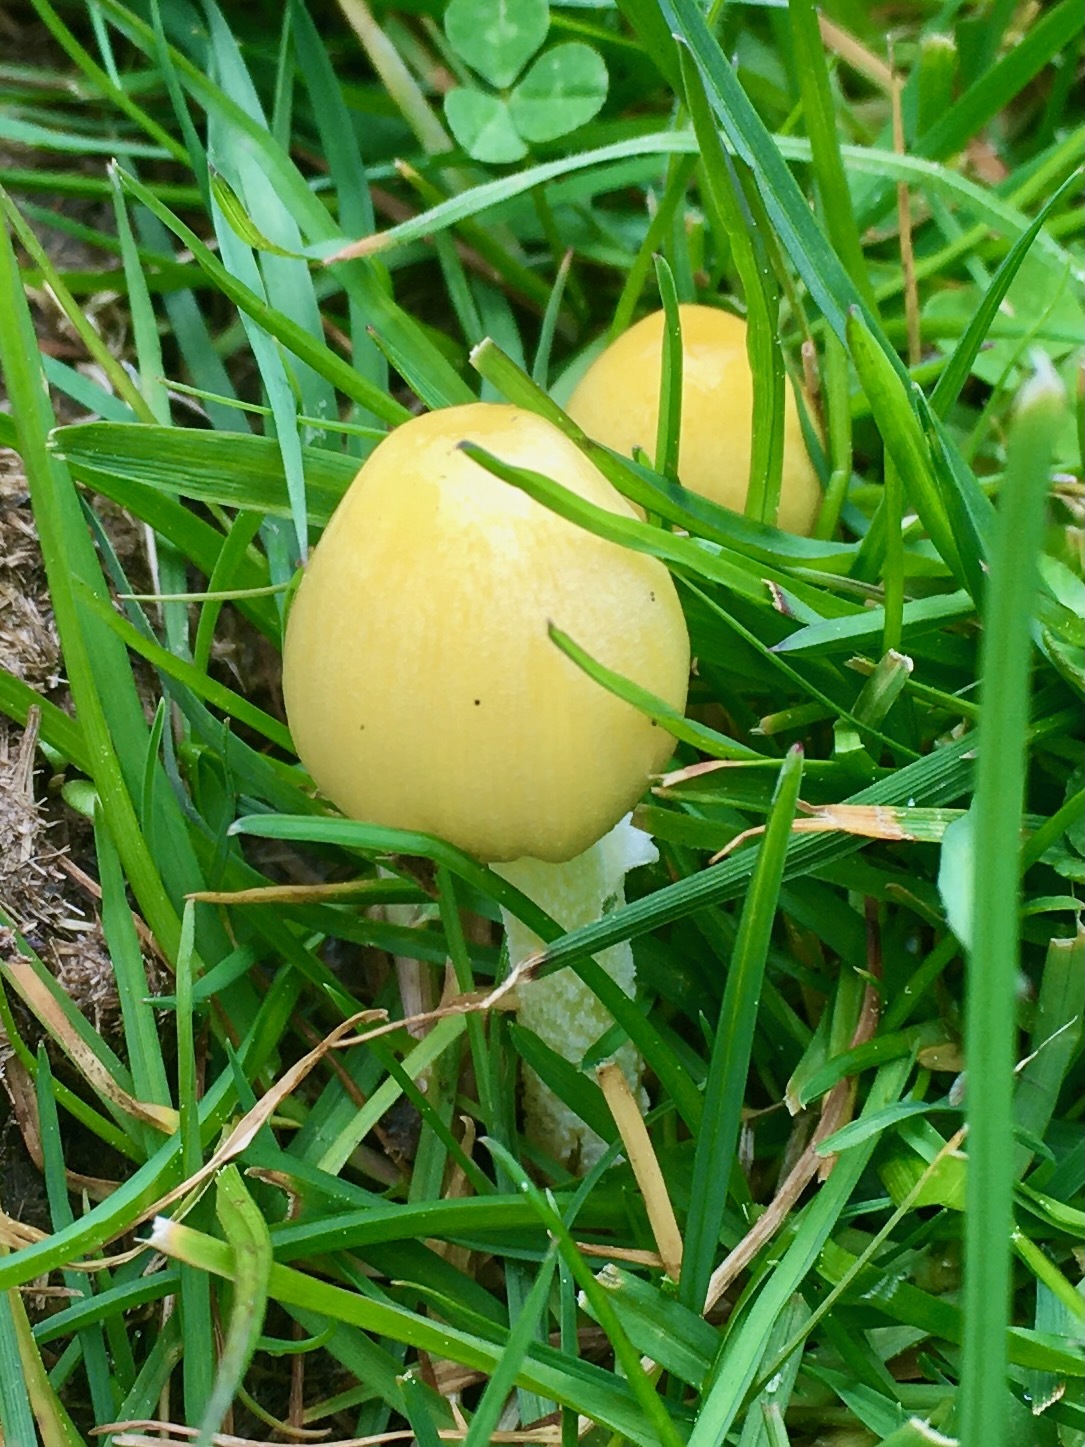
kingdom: Fungi
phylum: Basidiomycota
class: Agaricomycetes
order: Agaricales
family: Bolbitiaceae
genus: Bolbitius
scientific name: Bolbitius titubans
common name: Yellow fieldcap
